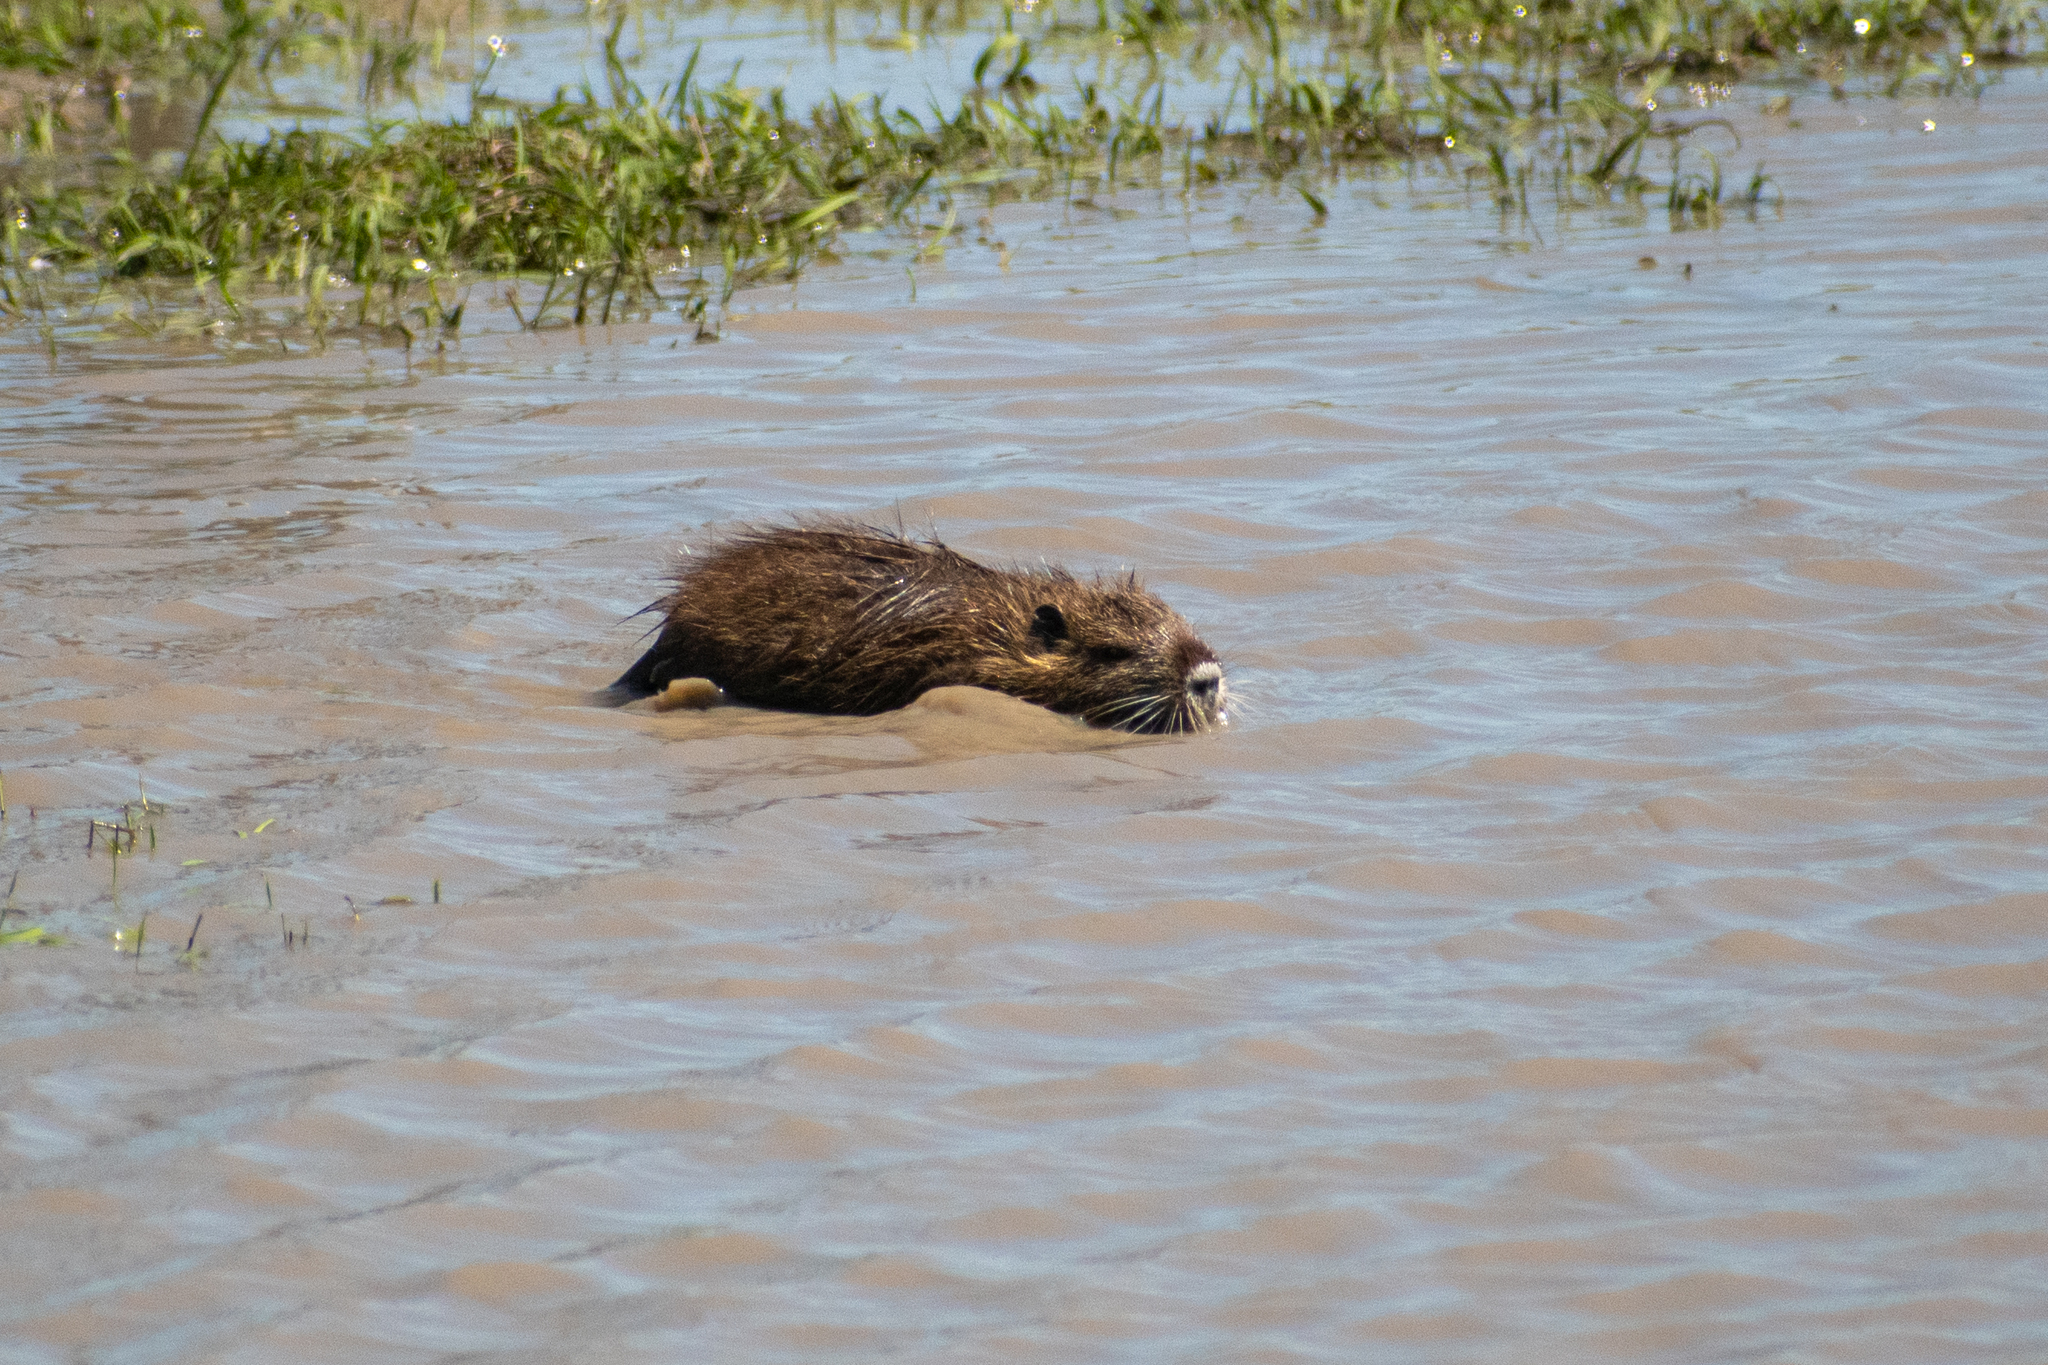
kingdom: Animalia
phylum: Chordata
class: Mammalia
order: Rodentia
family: Myocastoridae
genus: Myocastor
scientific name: Myocastor coypus
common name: Coypu
